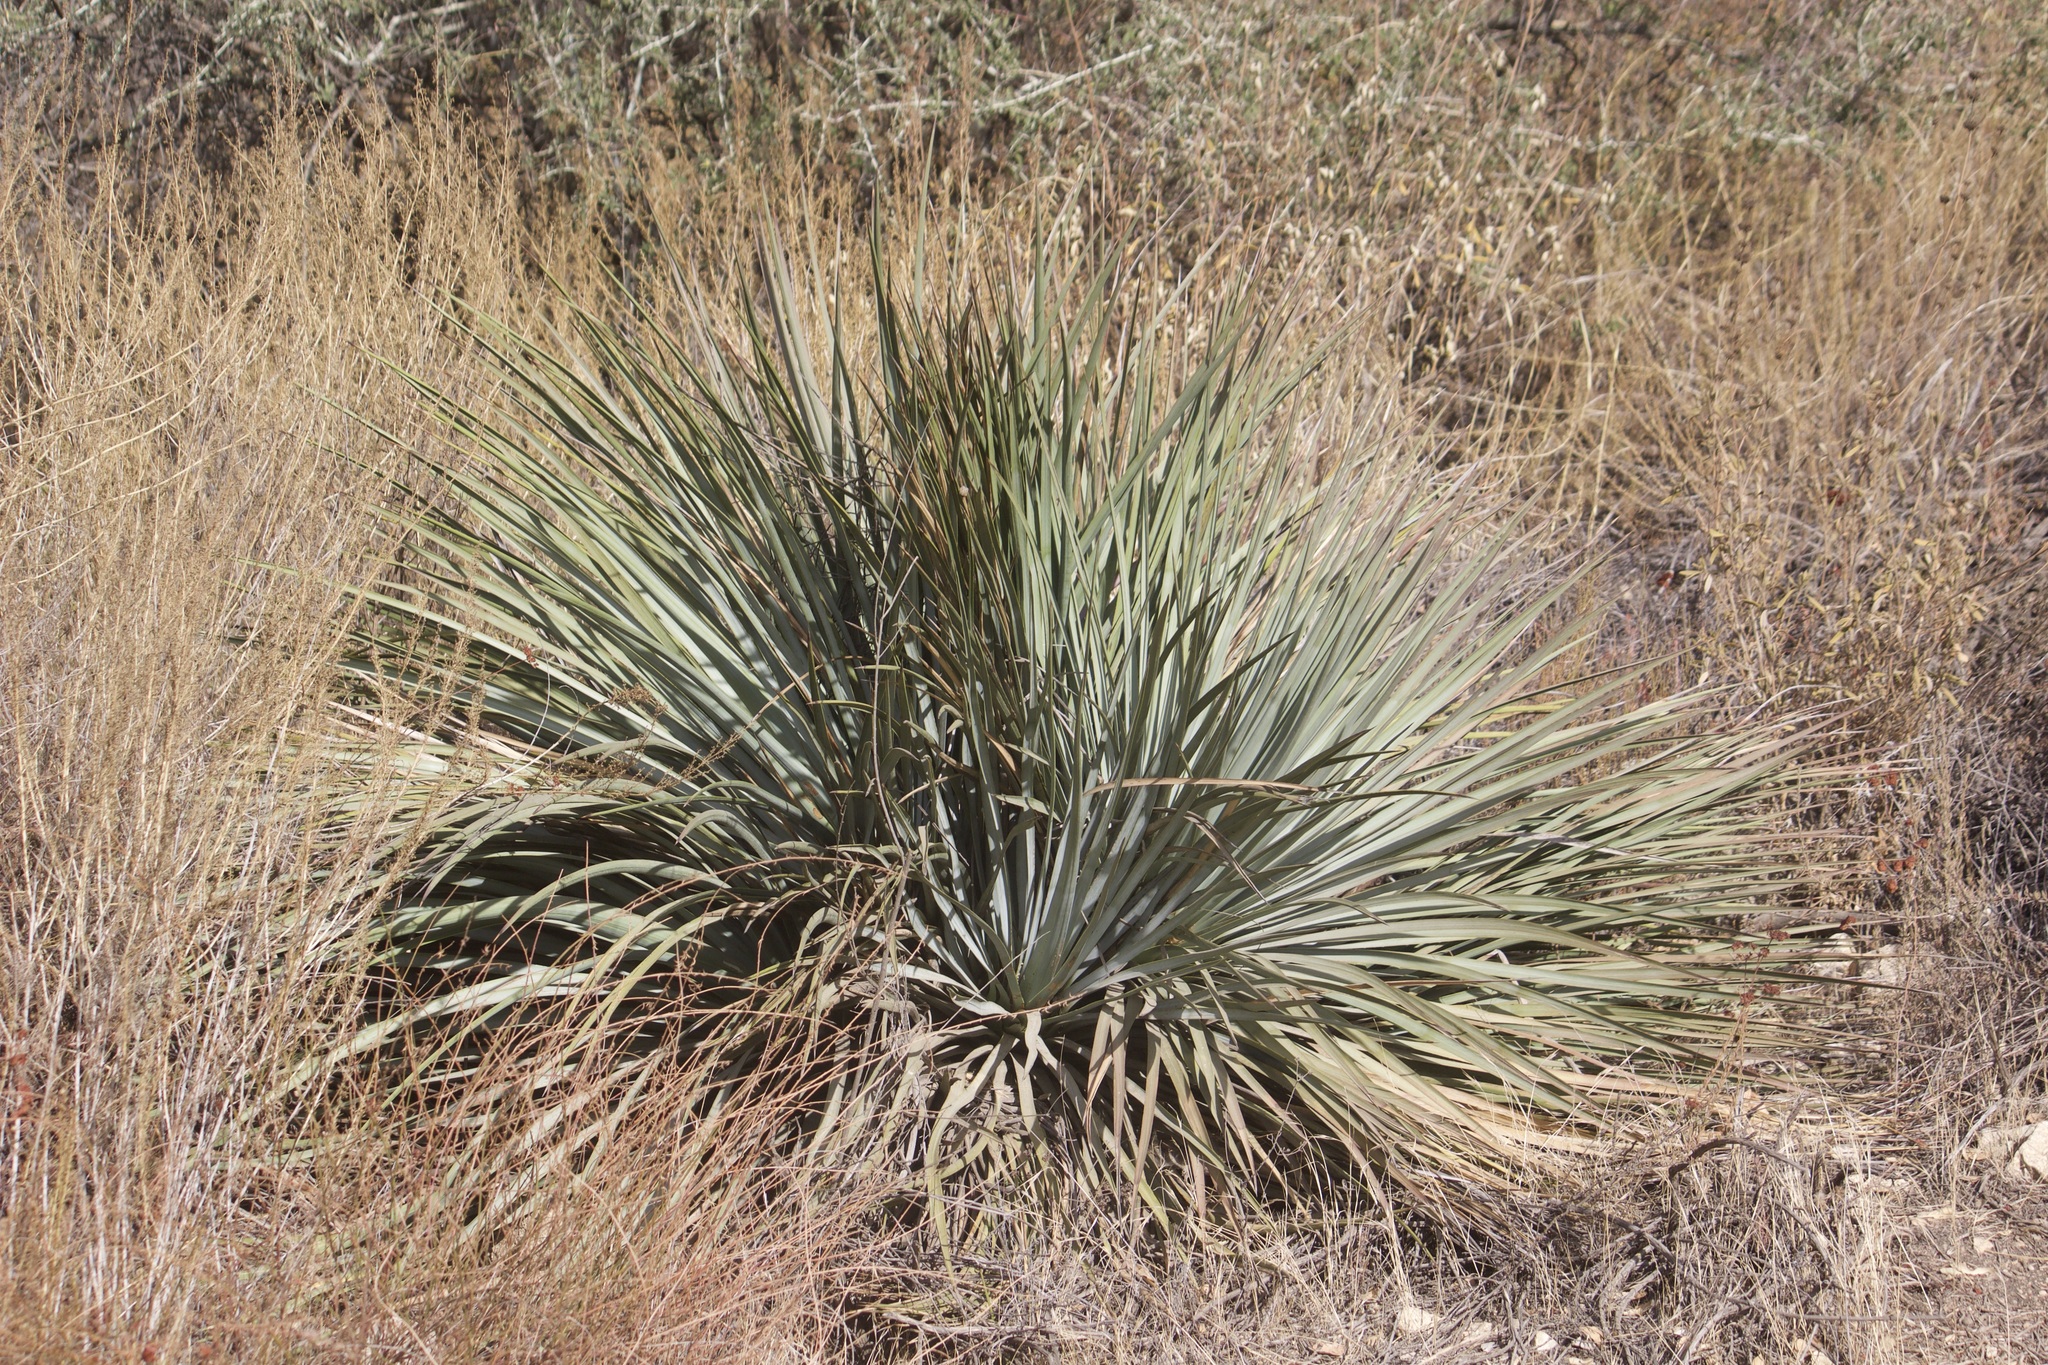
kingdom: Plantae
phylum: Tracheophyta
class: Liliopsida
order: Asparagales
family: Asparagaceae
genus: Hesperoyucca
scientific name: Hesperoyucca whipplei
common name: Our lord's-candle
